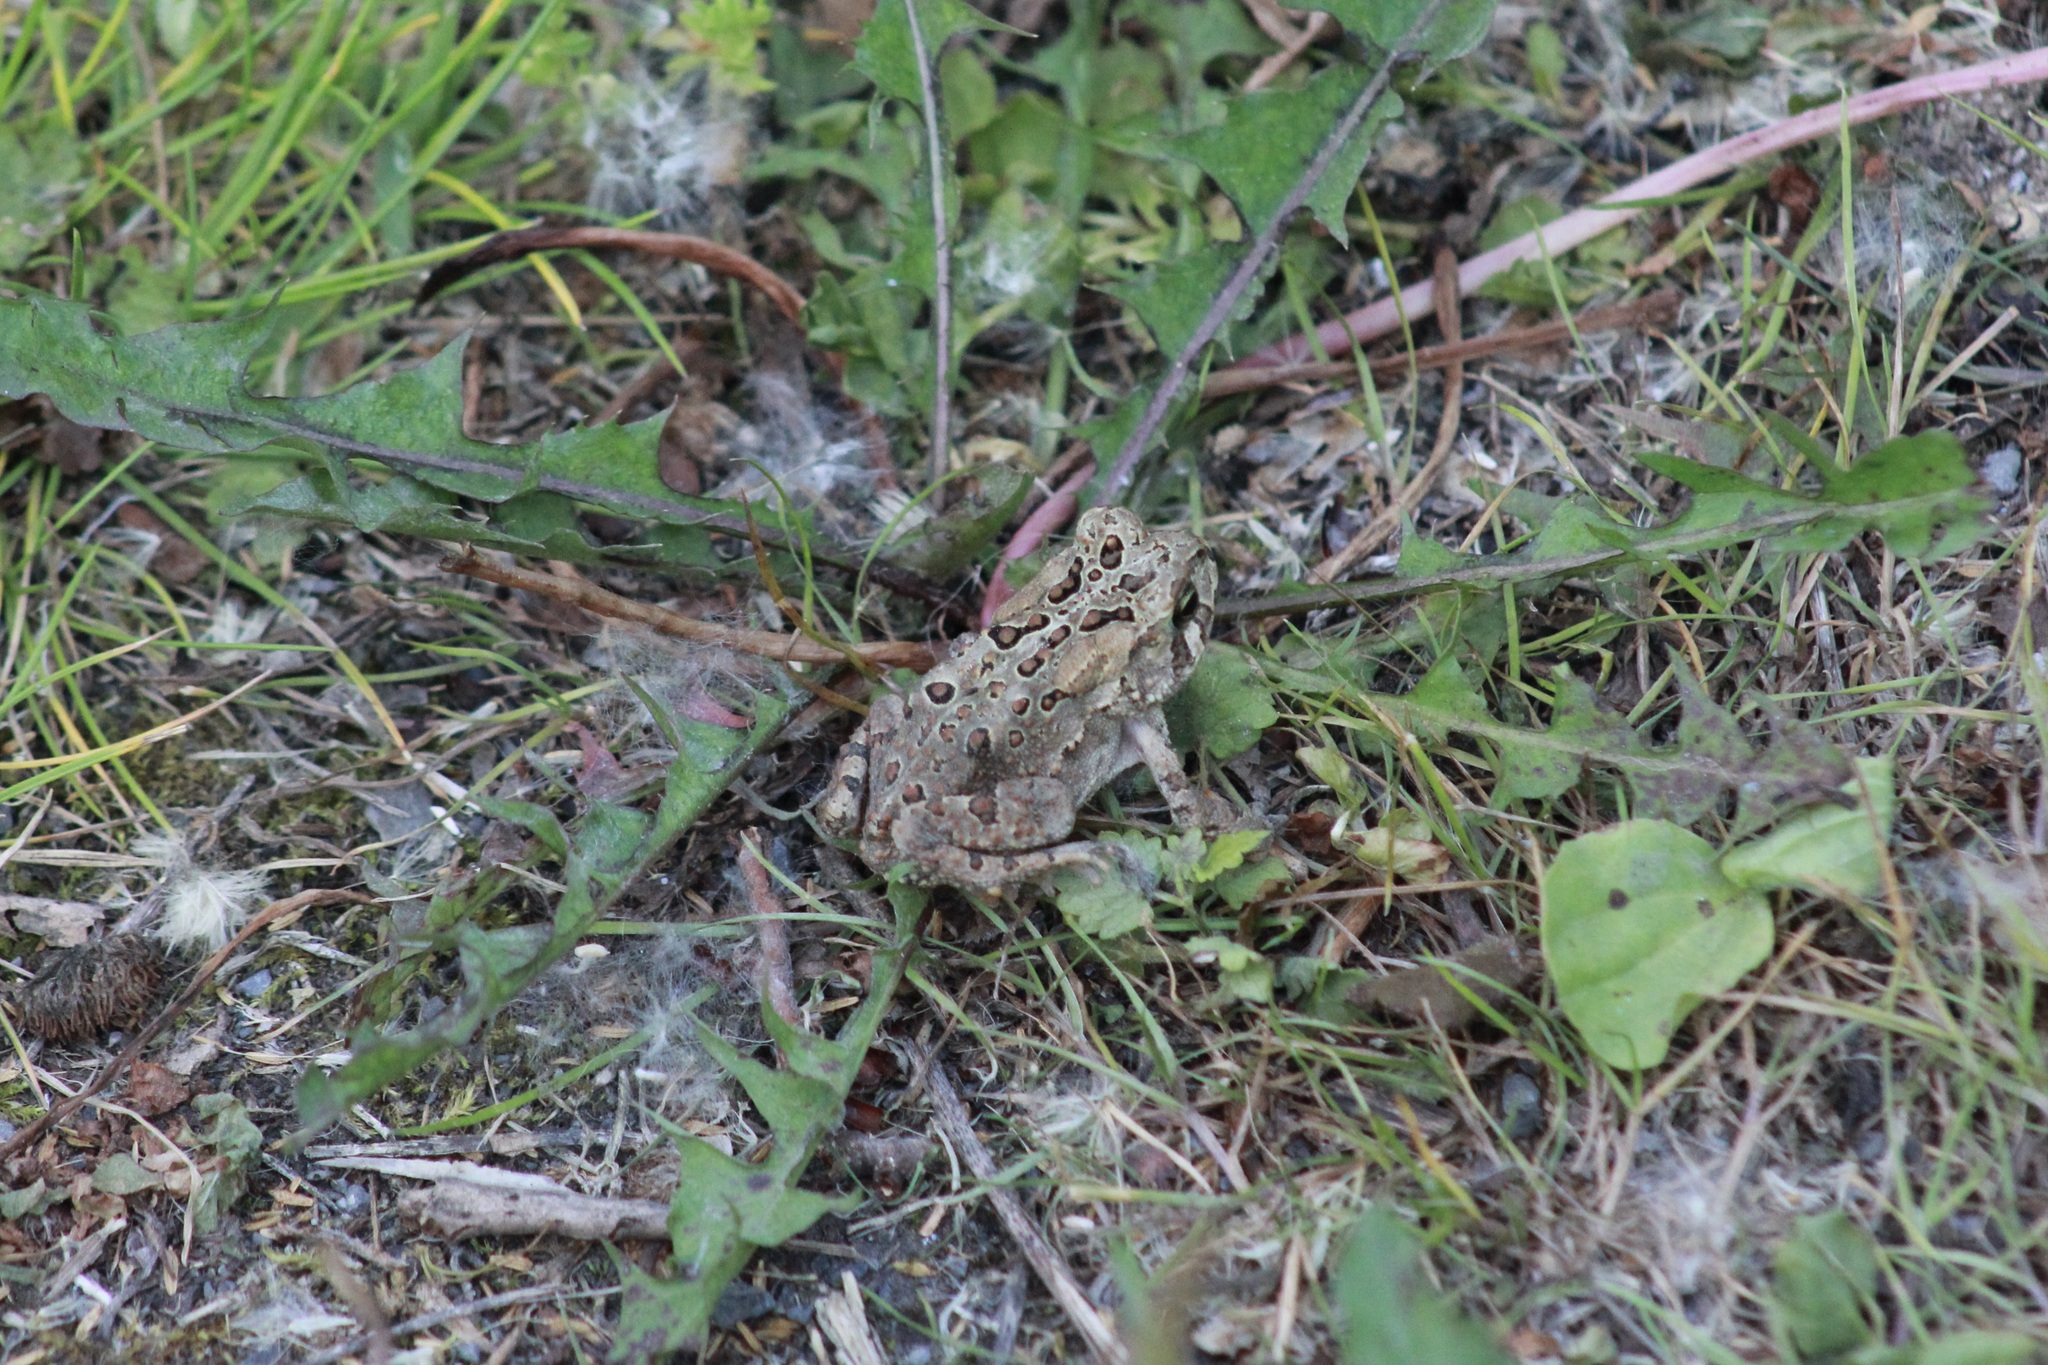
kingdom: Animalia
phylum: Chordata
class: Amphibia
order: Anura
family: Bufonidae
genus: Anaxyrus
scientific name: Anaxyrus americanus
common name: American toad
